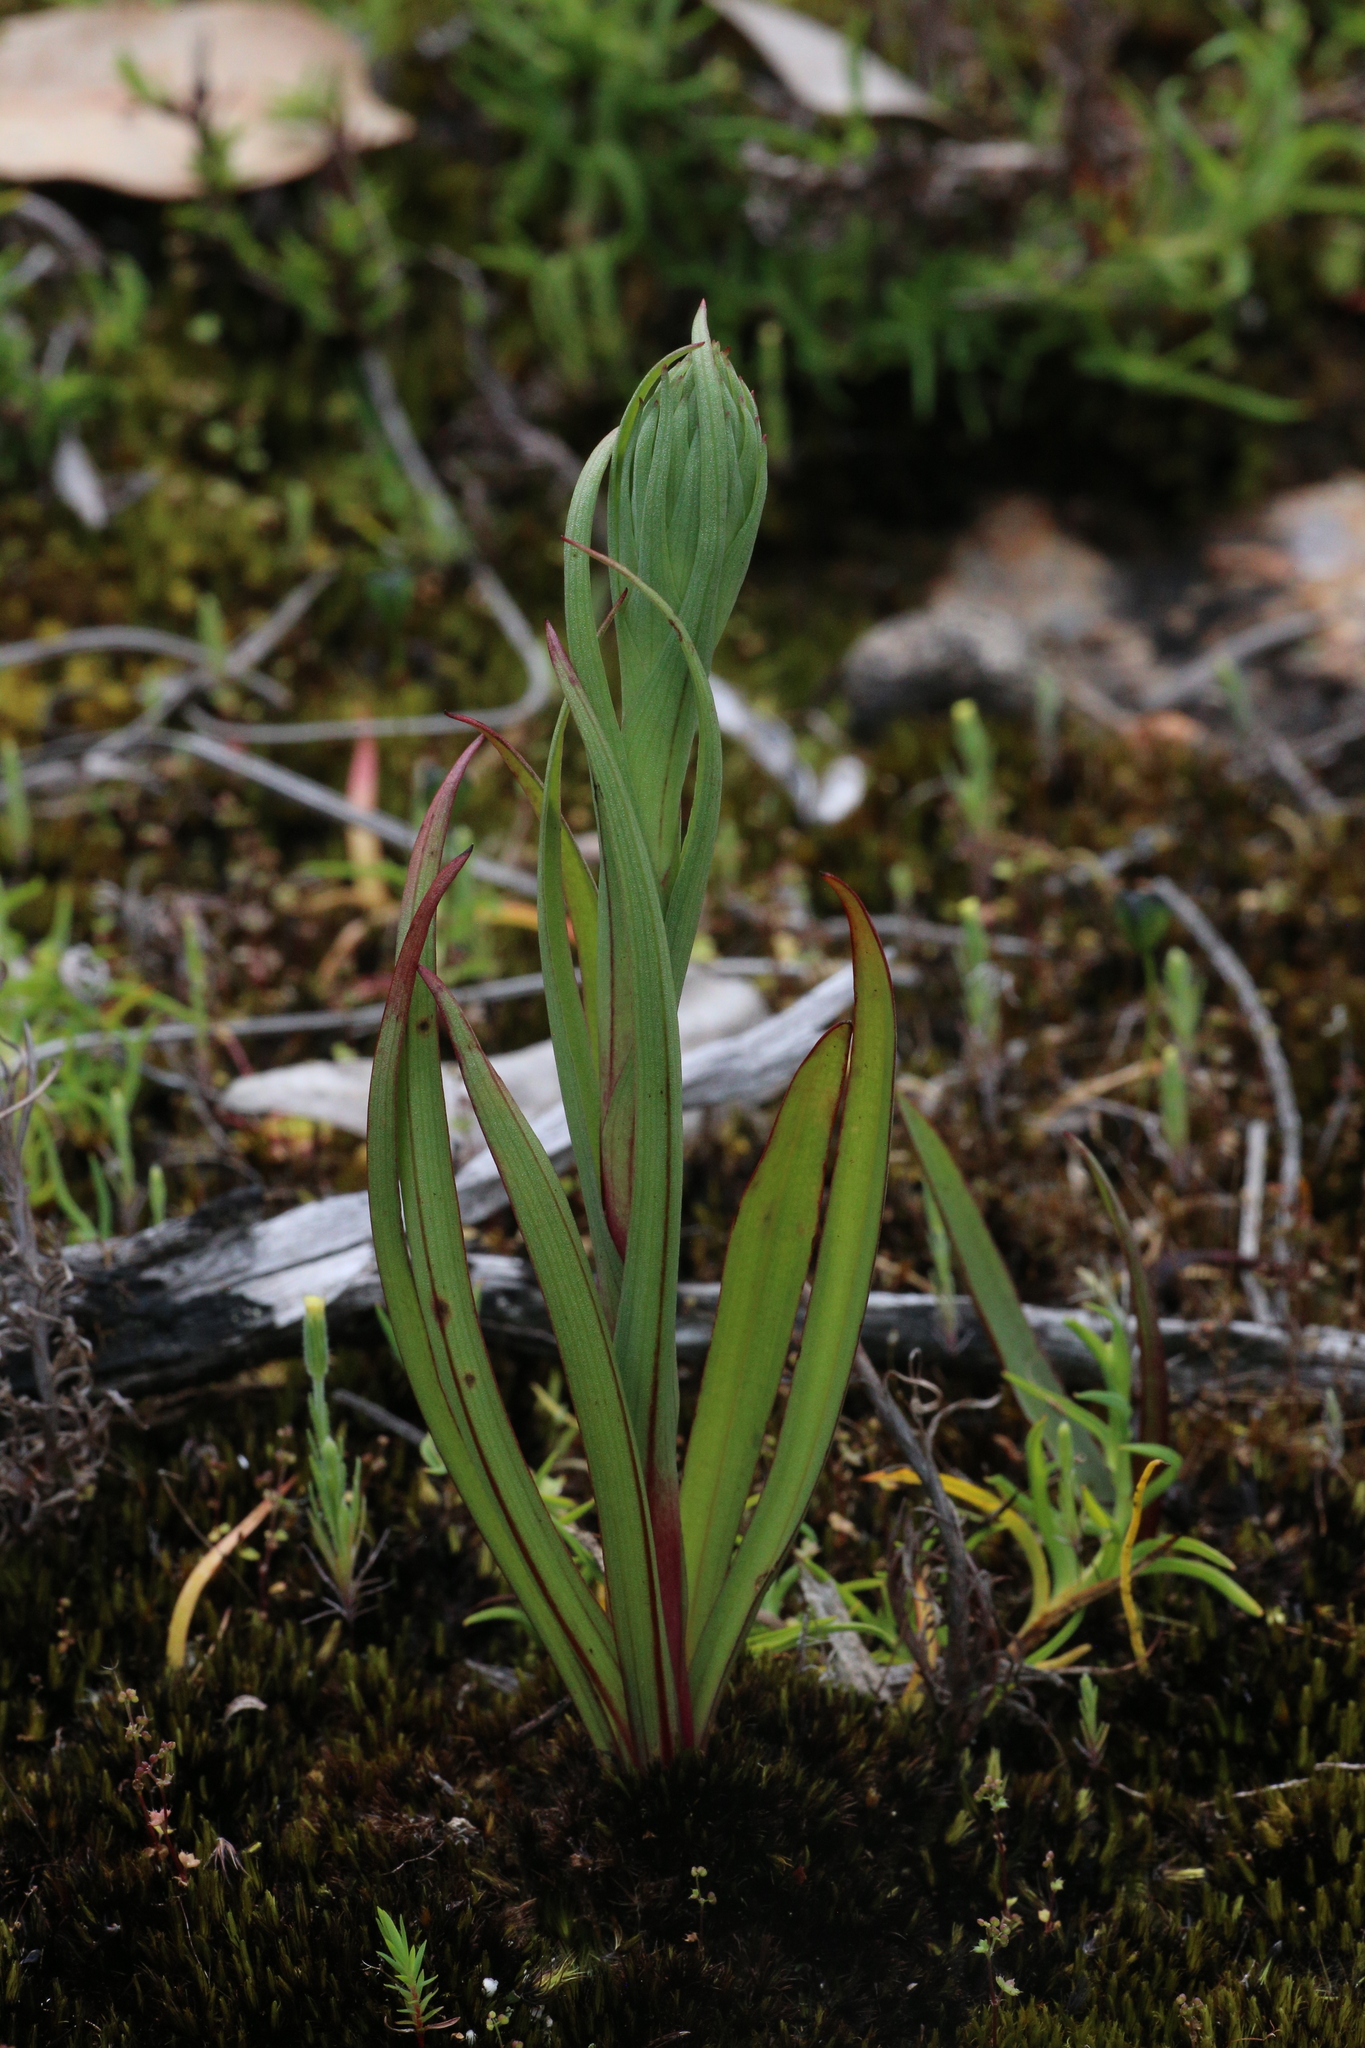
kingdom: Plantae
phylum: Tracheophyta
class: Liliopsida
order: Asparagales
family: Orchidaceae
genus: Disa
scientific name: Disa bracteata
